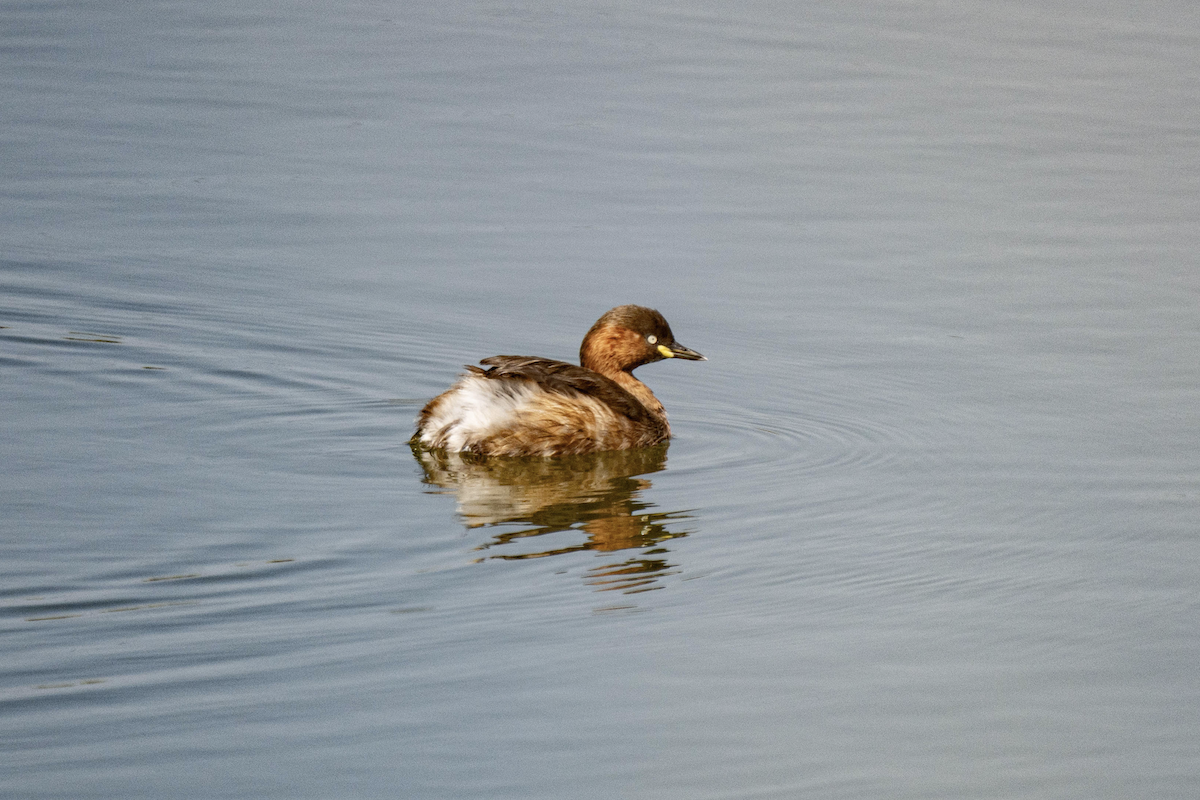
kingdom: Animalia
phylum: Chordata
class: Aves
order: Podicipediformes
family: Podicipedidae
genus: Tachybaptus
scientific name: Tachybaptus ruficollis
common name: Little grebe
